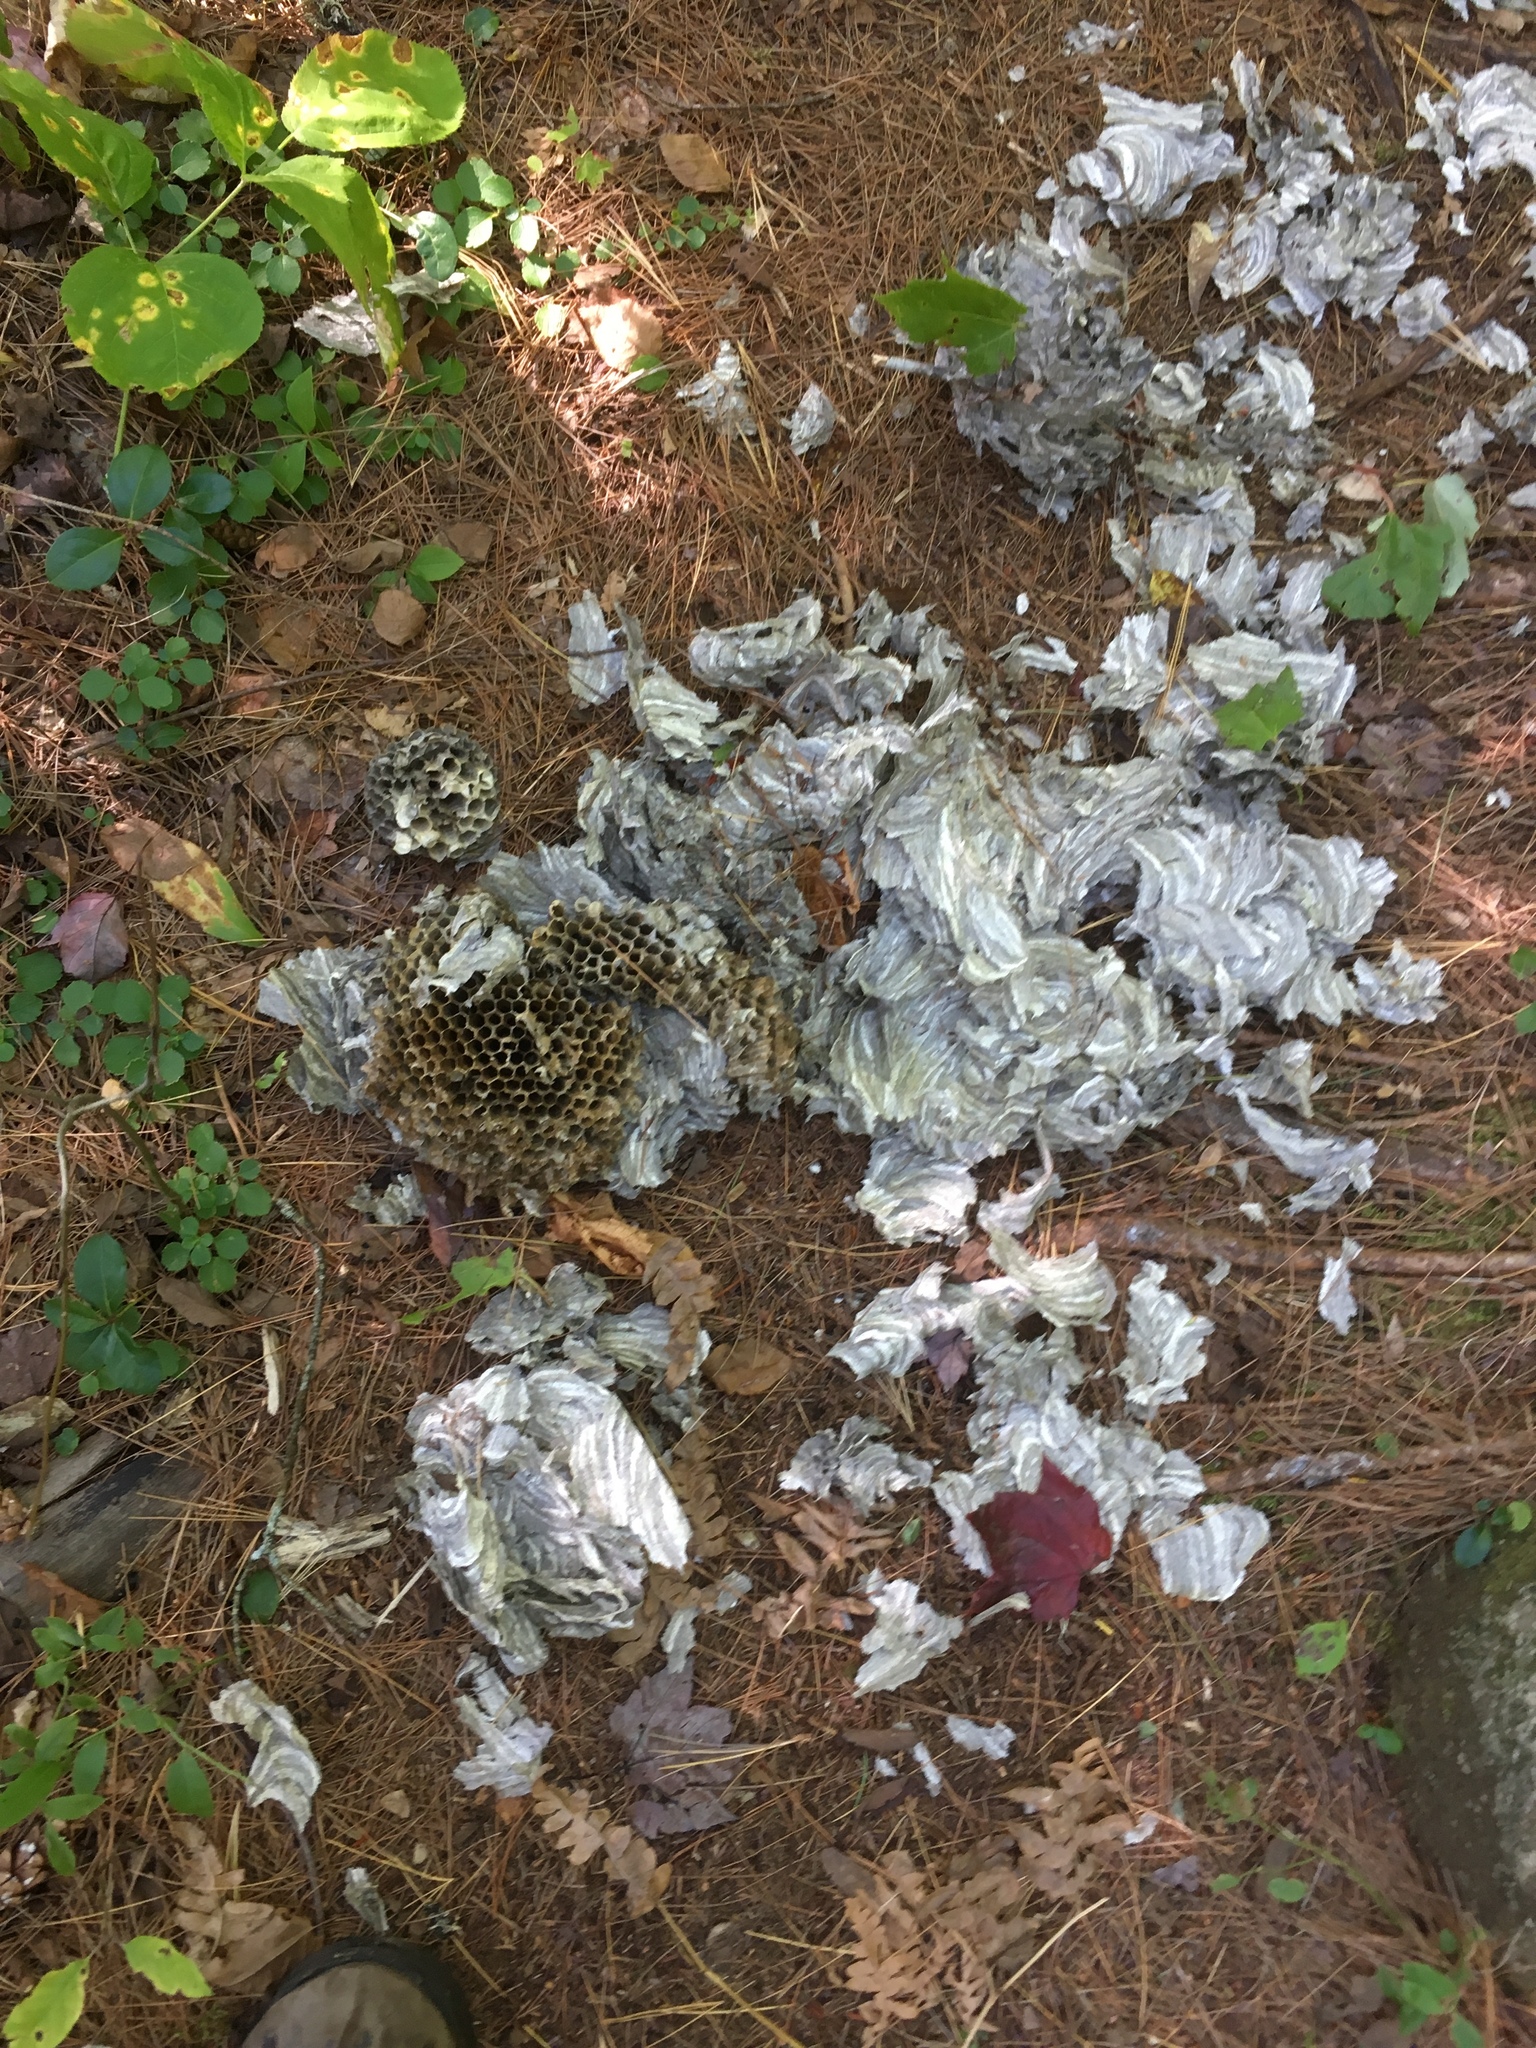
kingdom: Animalia
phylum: Arthropoda
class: Insecta
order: Hymenoptera
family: Vespidae
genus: Dolichovespula
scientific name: Dolichovespula
